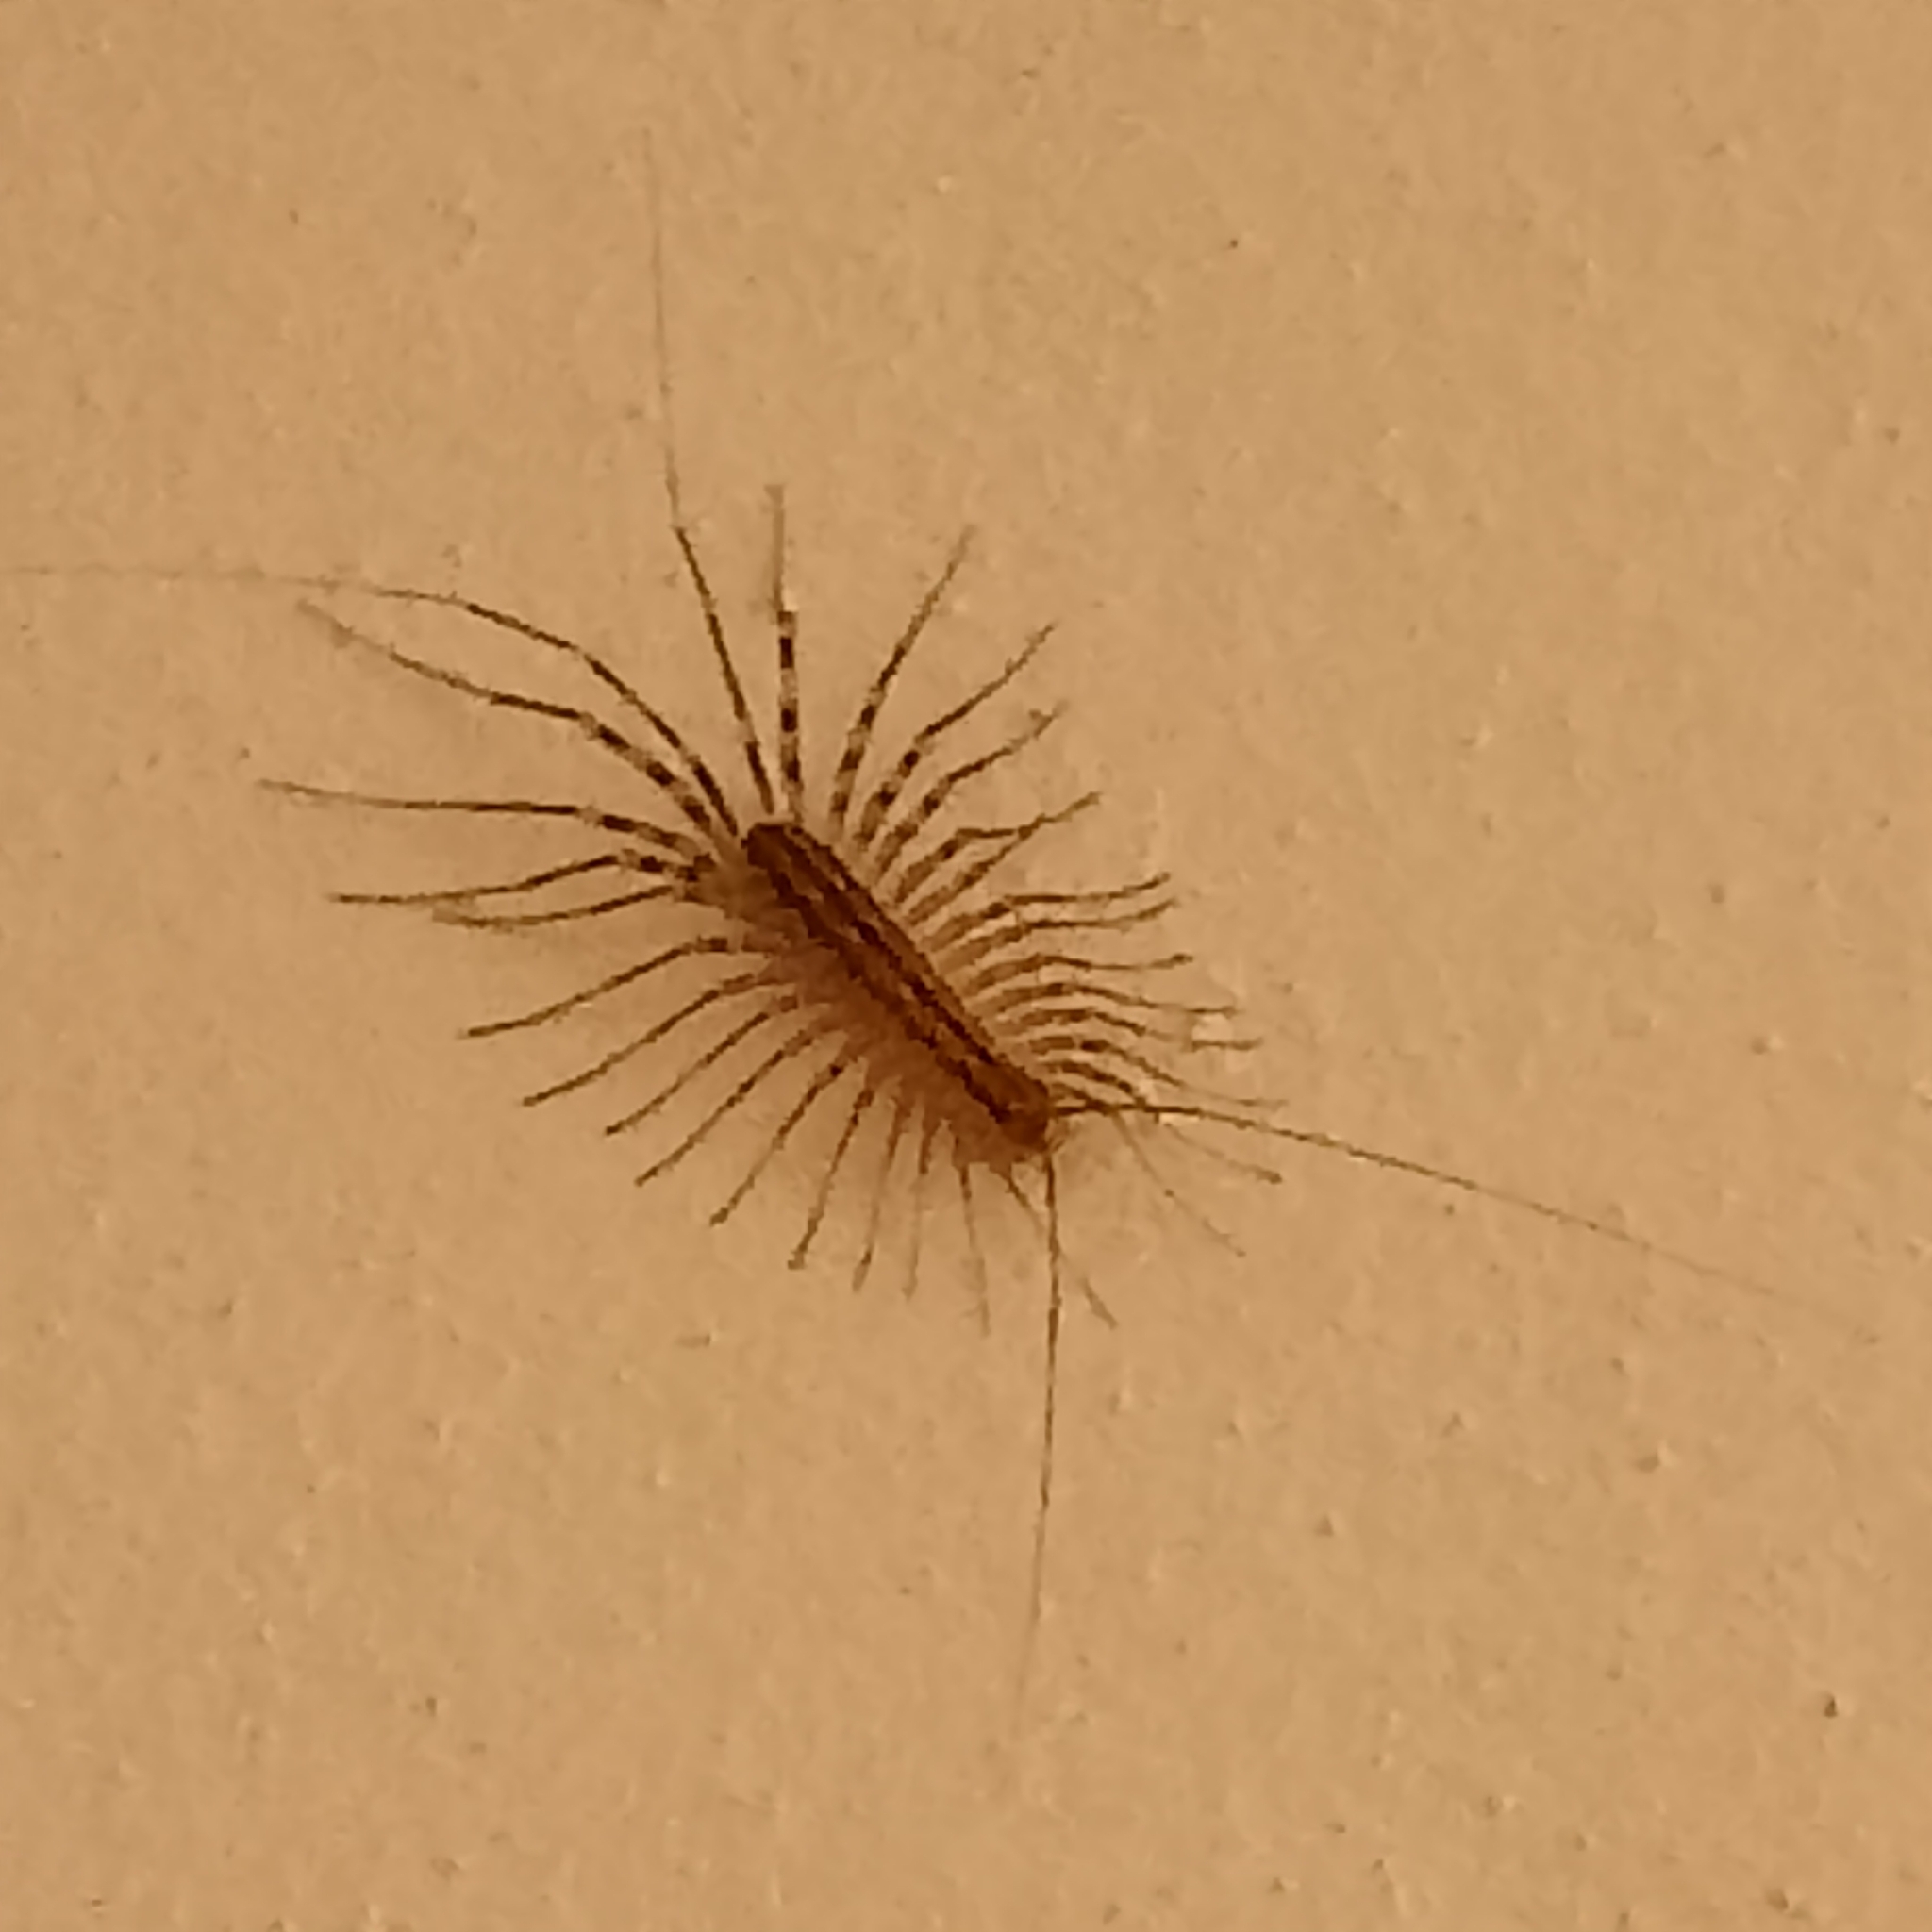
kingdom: Animalia
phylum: Arthropoda
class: Chilopoda
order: Scutigeromorpha
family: Scutigeridae
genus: Scutigera
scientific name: Scutigera coleoptrata
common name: House centipede
